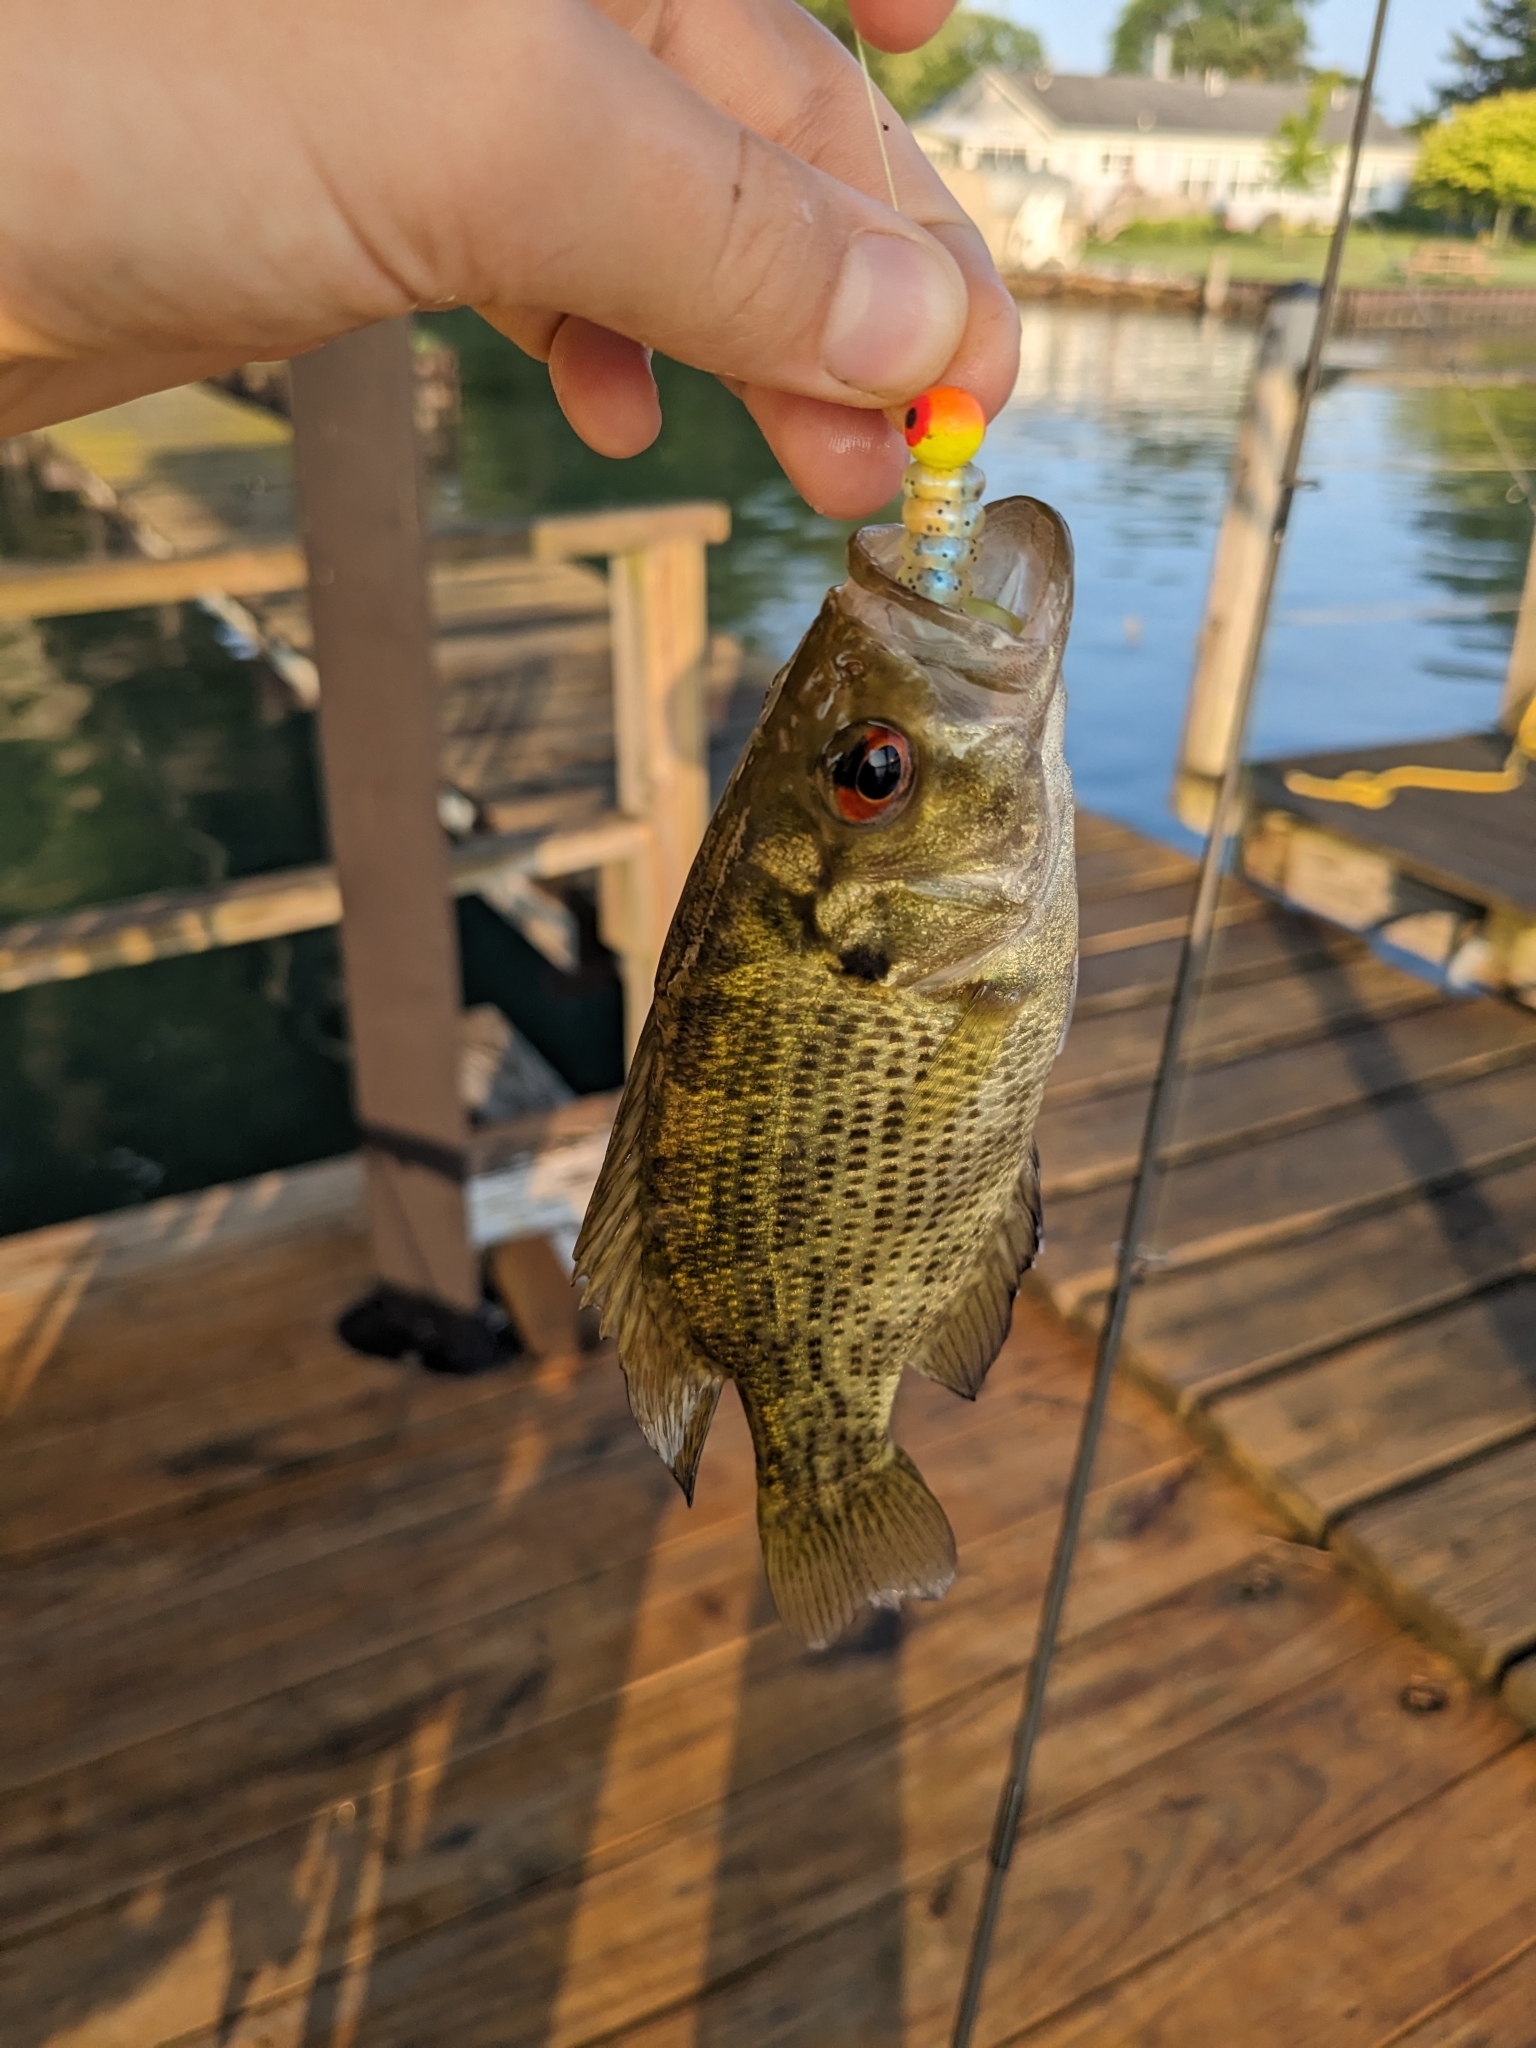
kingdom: Animalia
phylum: Chordata
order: Perciformes
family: Centrarchidae
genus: Ambloplites
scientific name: Ambloplites rupestris
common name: Rock bass
